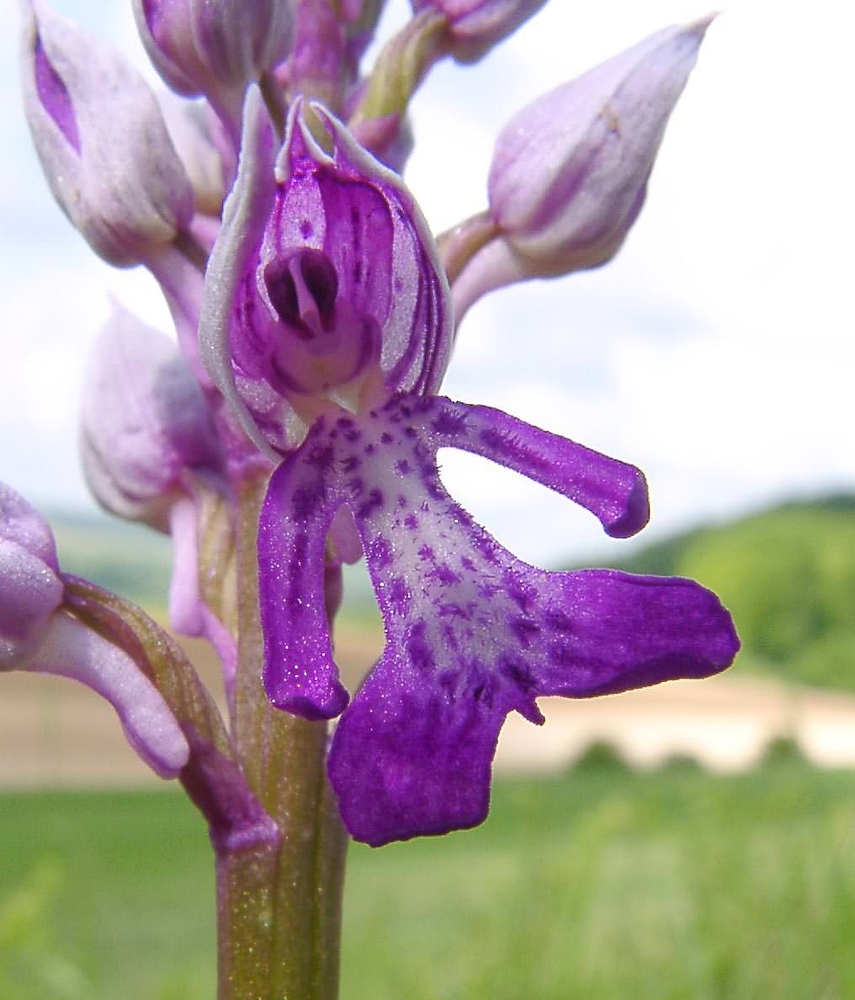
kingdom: Plantae
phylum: Tracheophyta
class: Liliopsida
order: Asparagales
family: Orchidaceae
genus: Orchis
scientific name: Orchis militaris
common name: Military orchid
